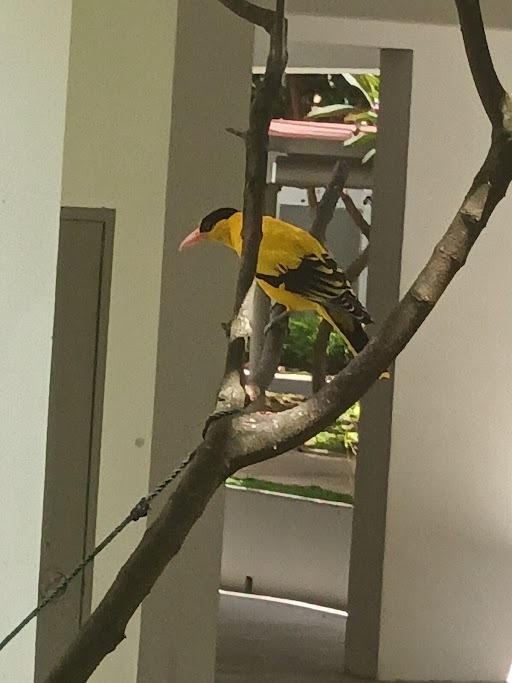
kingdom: Animalia
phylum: Chordata
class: Aves
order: Passeriformes
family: Oriolidae
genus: Oriolus
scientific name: Oriolus chinensis
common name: Black-naped oriole
